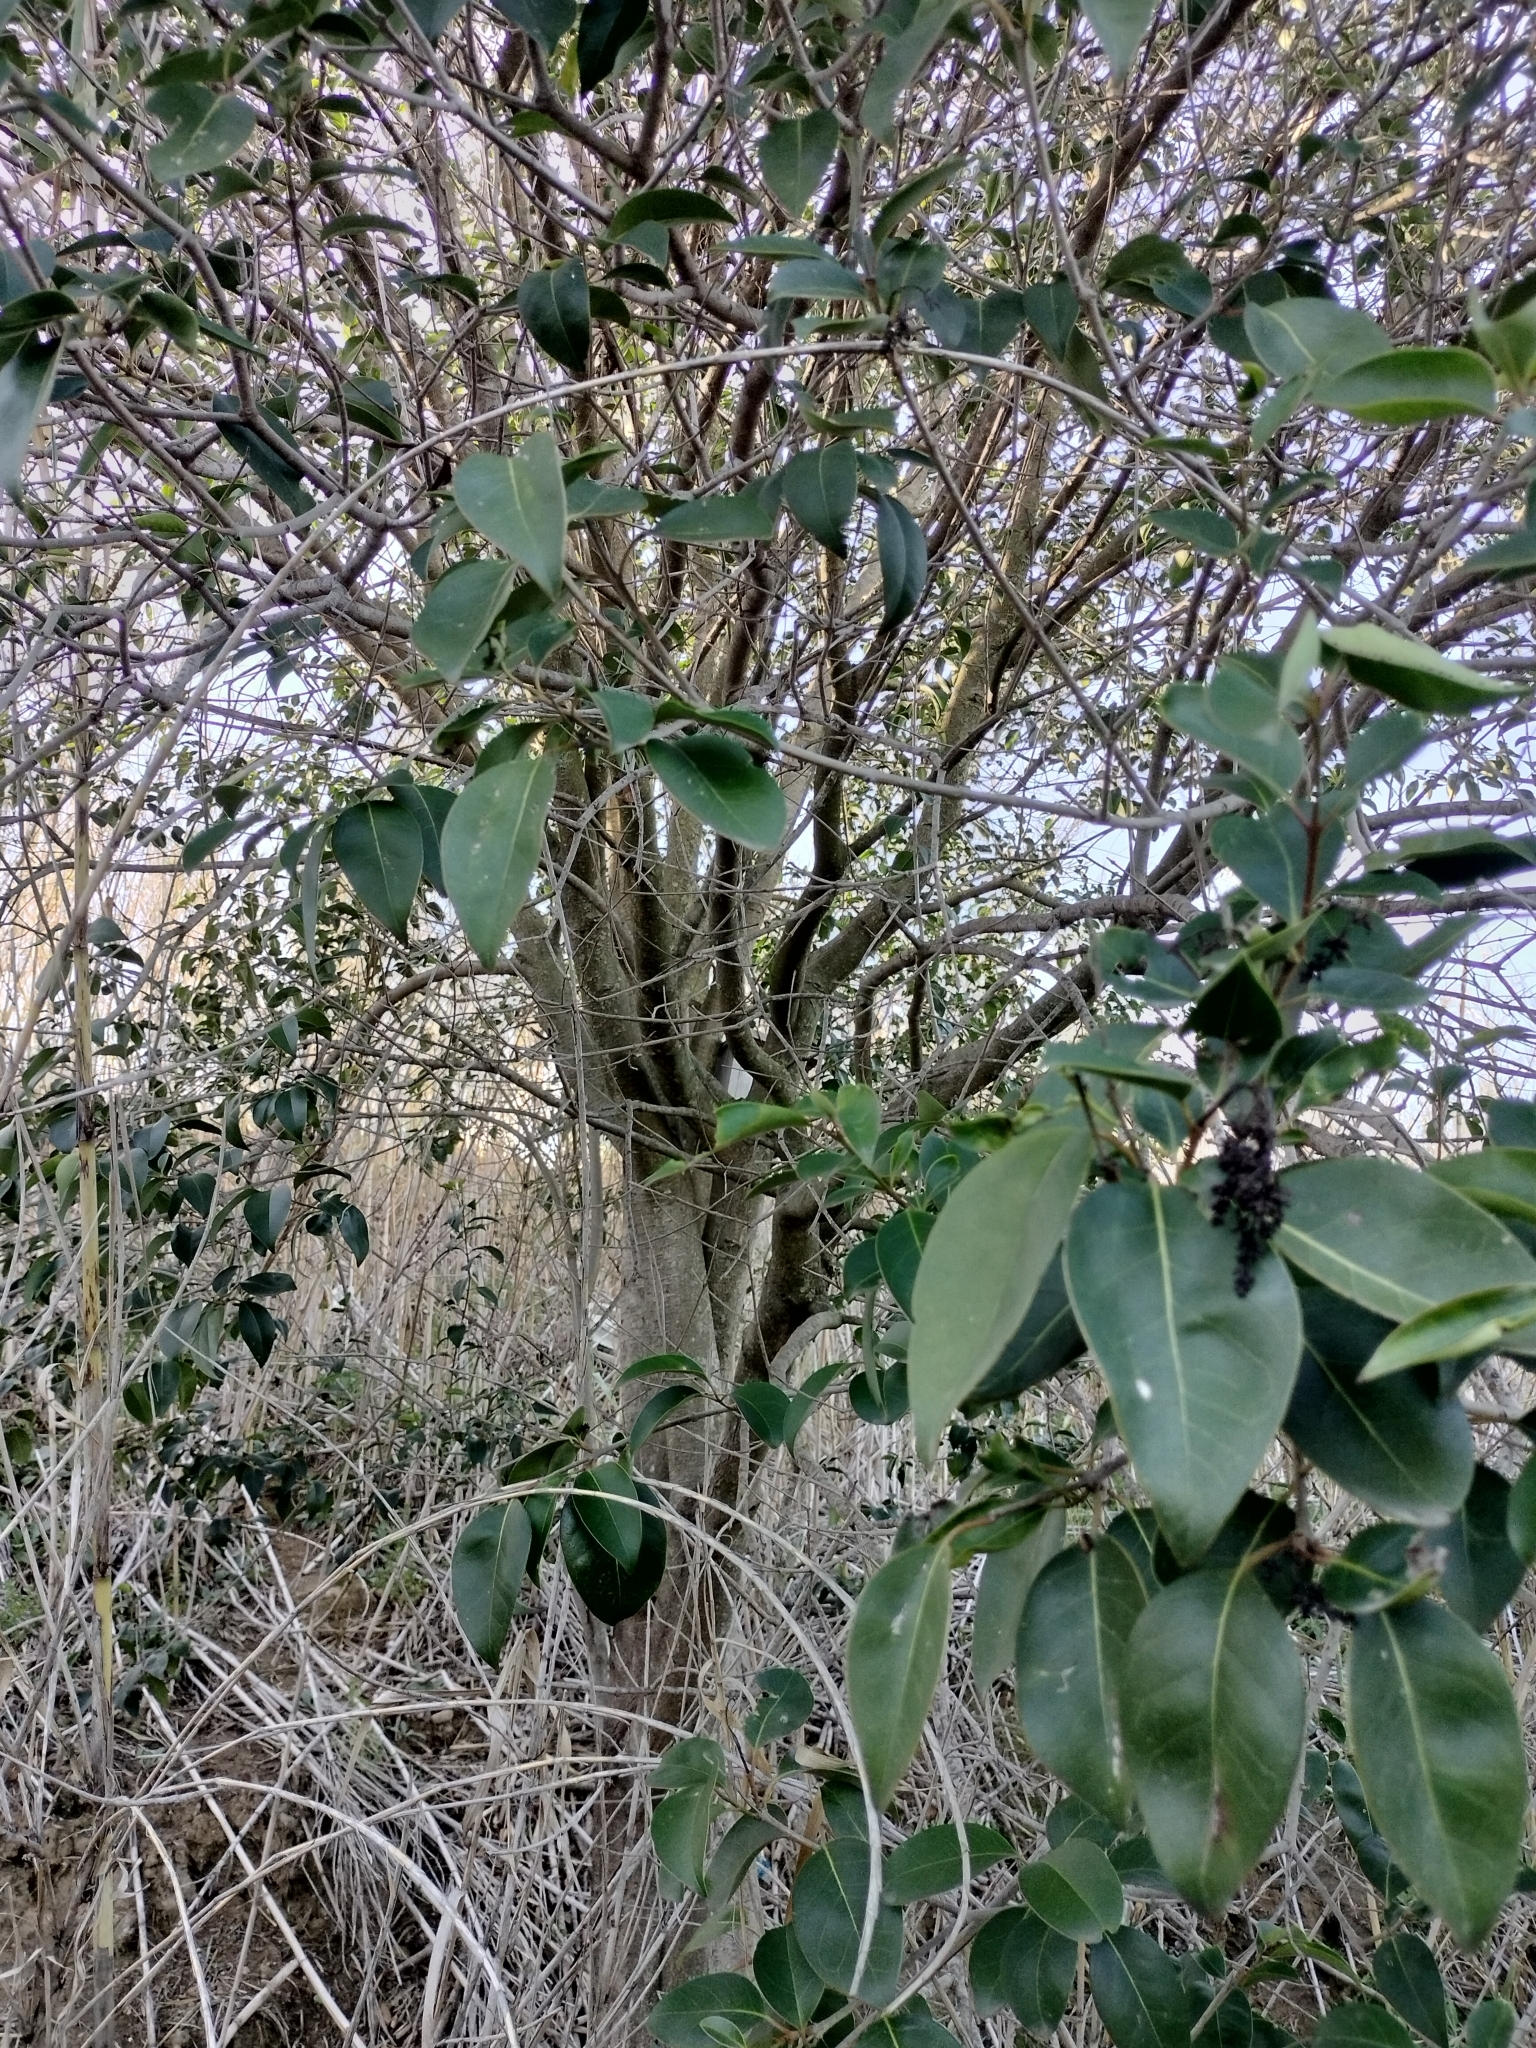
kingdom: Plantae
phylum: Tracheophyta
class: Magnoliopsida
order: Lamiales
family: Oleaceae
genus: Ligustrum
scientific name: Ligustrum lucidum
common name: Glossy privet
